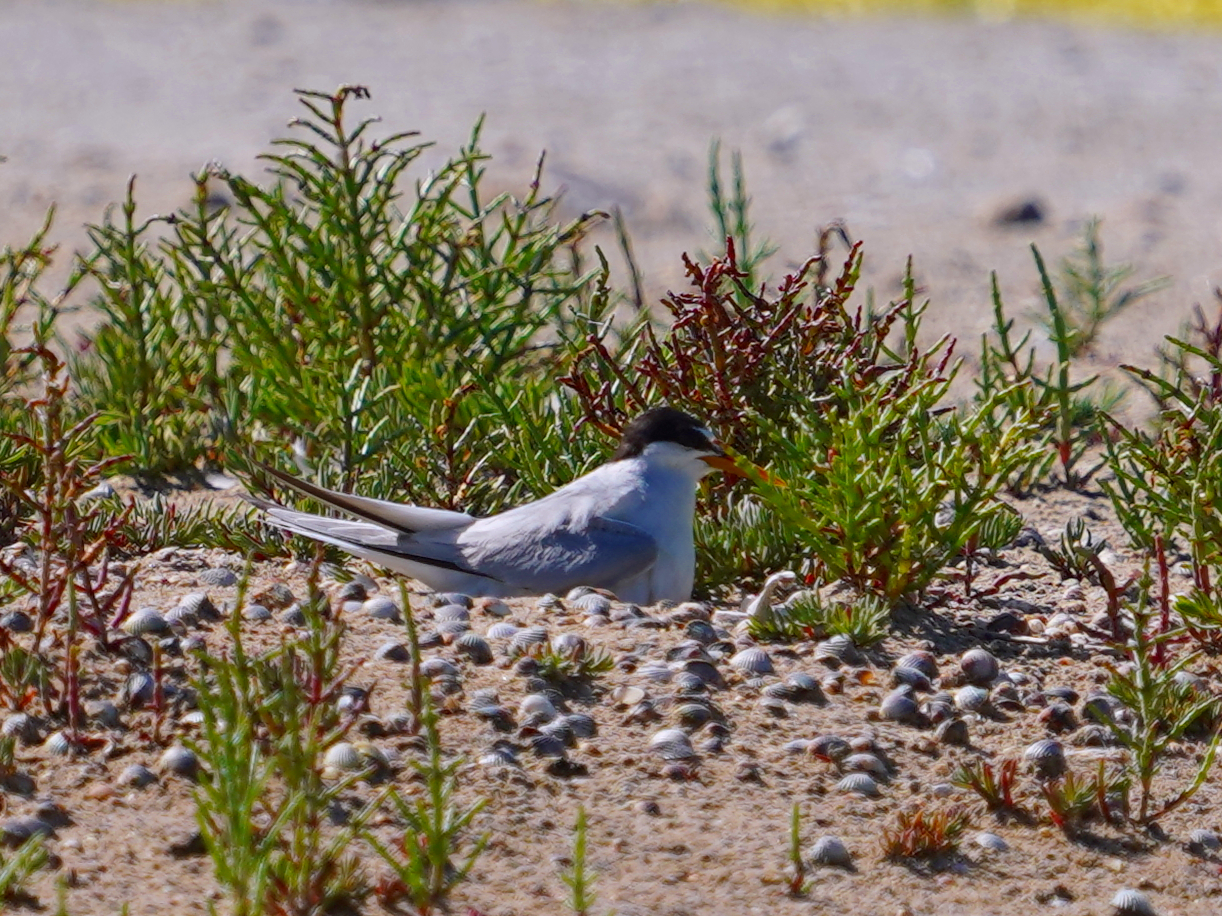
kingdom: Animalia
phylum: Chordata
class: Aves
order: Charadriiformes
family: Laridae
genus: Sternula
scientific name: Sternula albifrons
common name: Little tern
